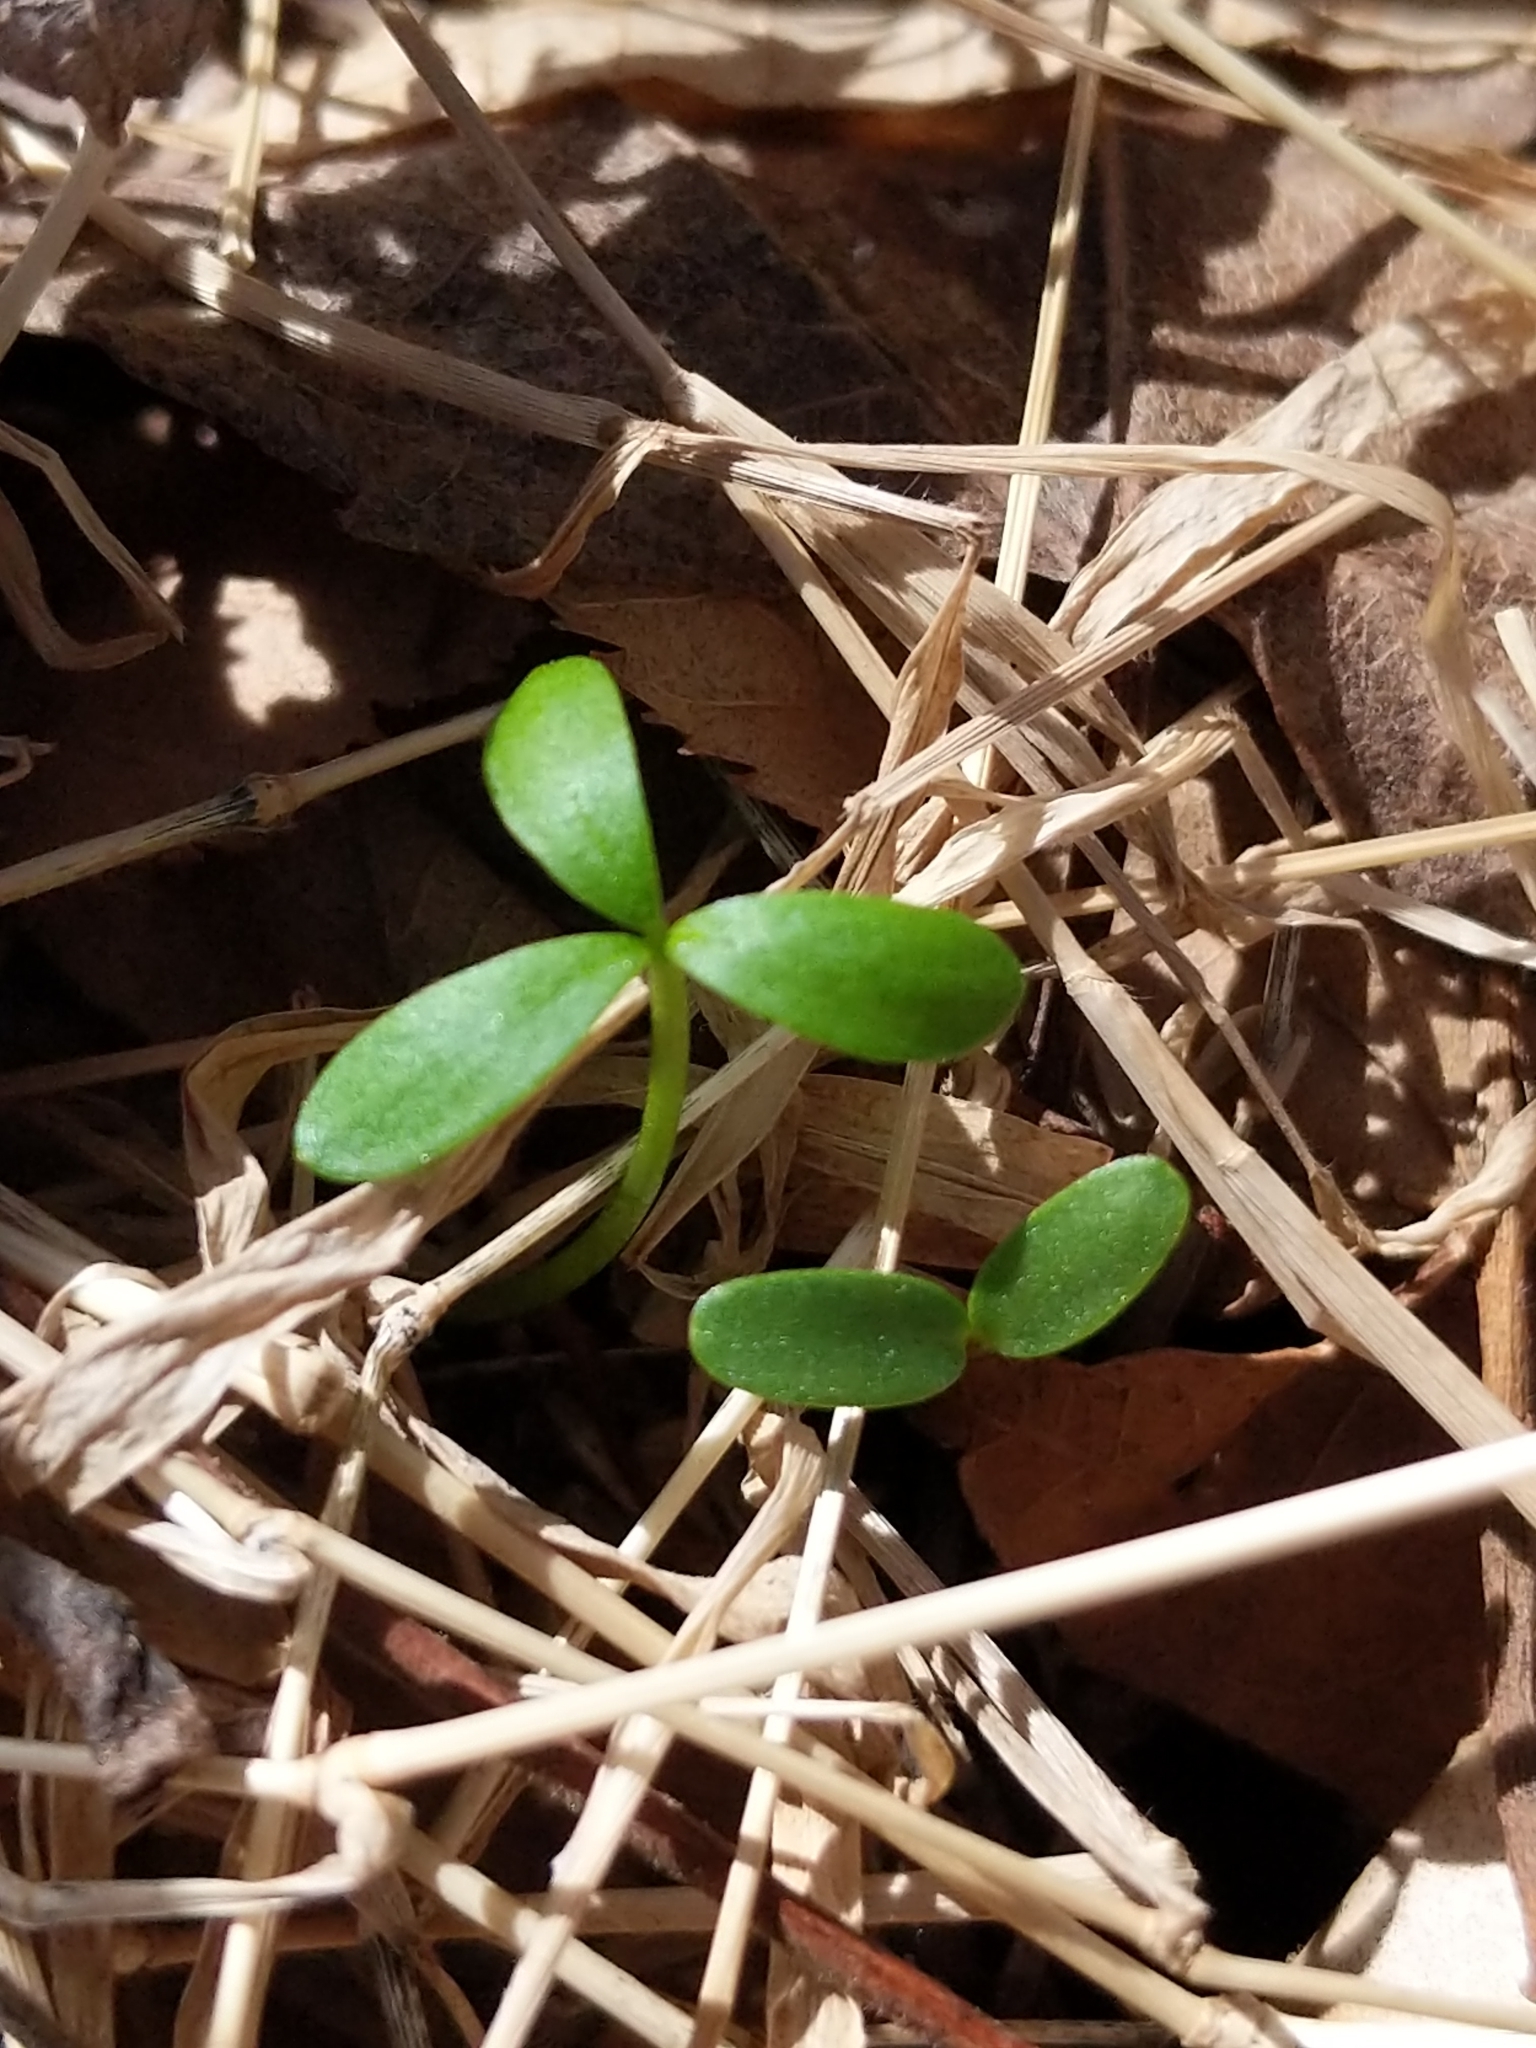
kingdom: Plantae
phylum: Tracheophyta
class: Magnoliopsida
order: Brassicales
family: Limnanthaceae
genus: Floerkea
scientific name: Floerkea proserpinacoides
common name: False mermaid
